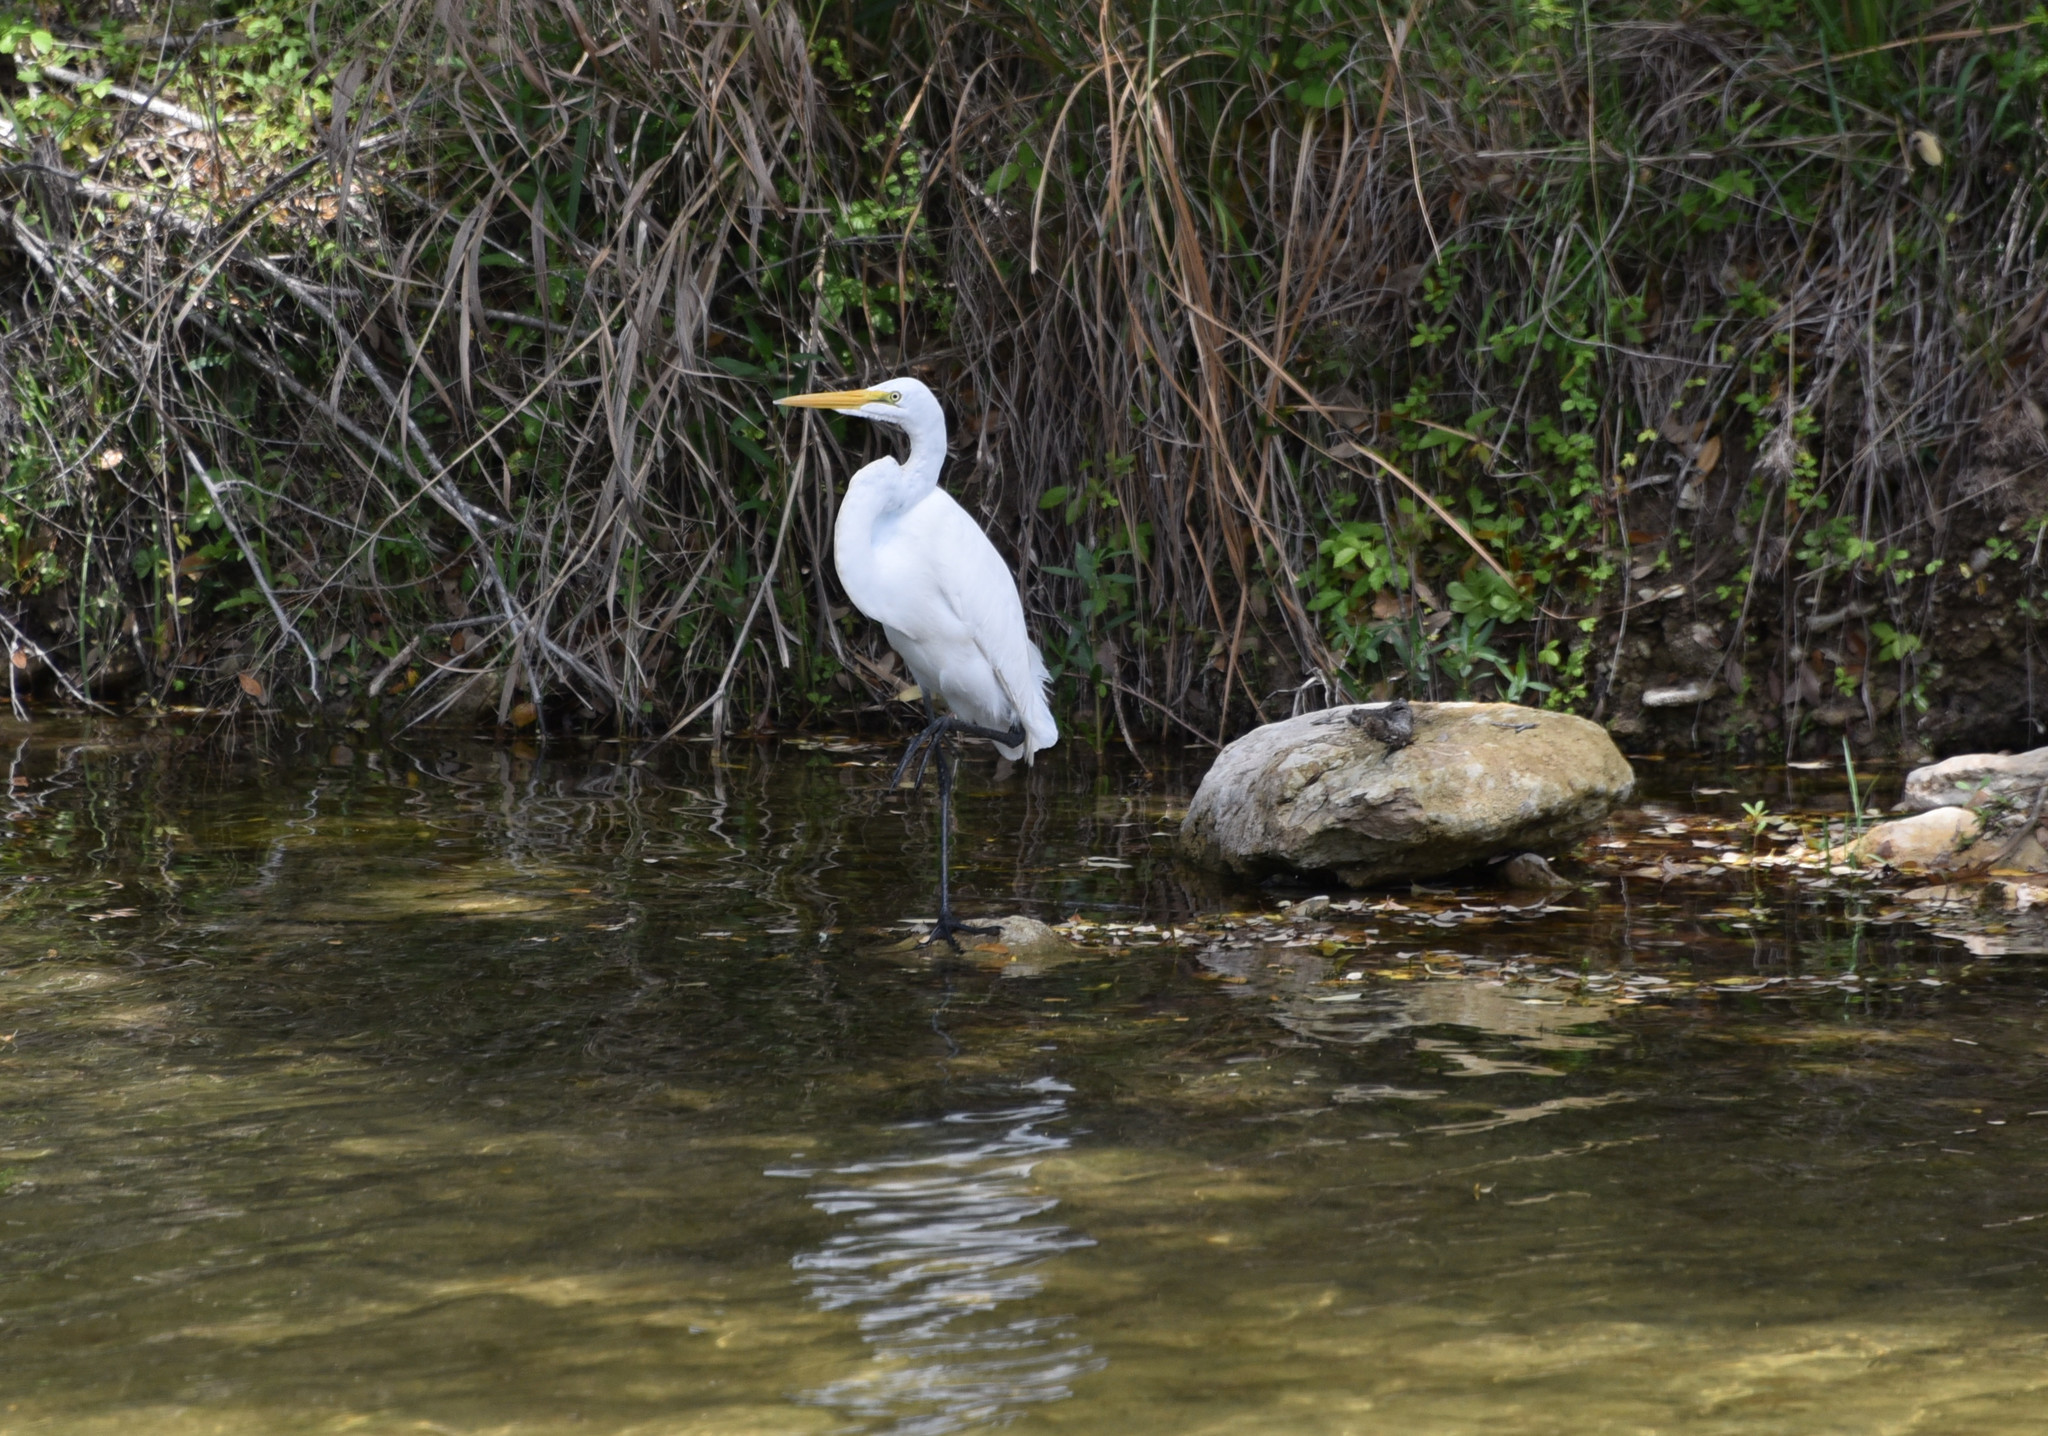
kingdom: Animalia
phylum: Chordata
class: Aves
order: Pelecaniformes
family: Ardeidae
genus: Ardea
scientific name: Ardea alba
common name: Great egret
